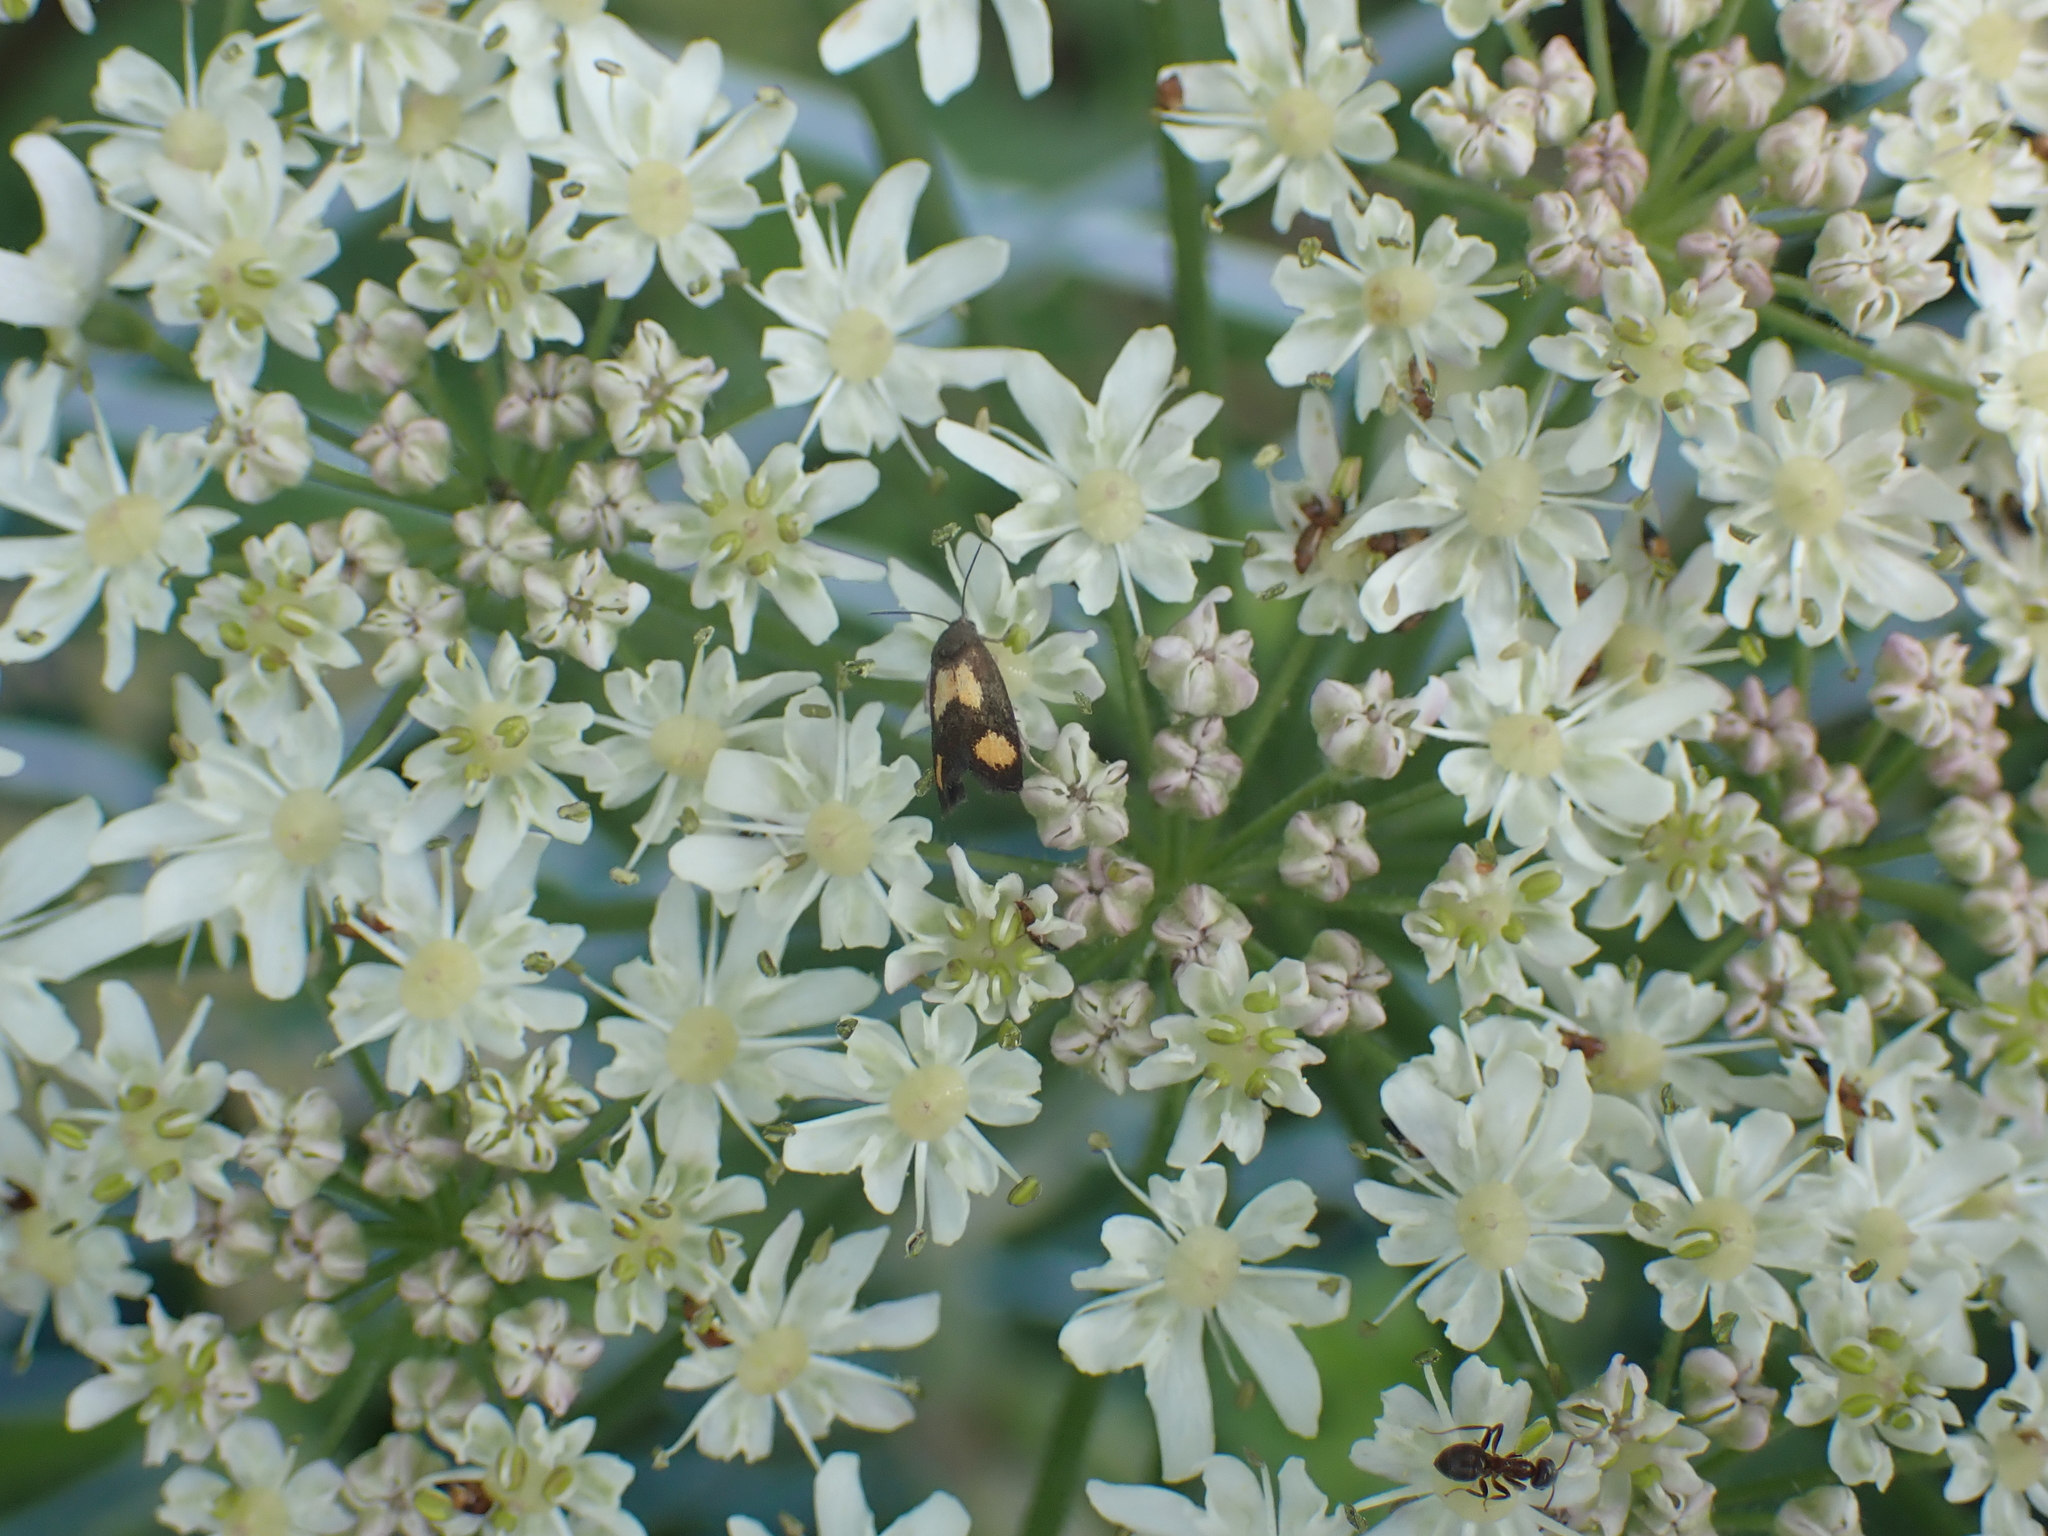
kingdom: Animalia
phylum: Arthropoda
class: Insecta
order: Lepidoptera
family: Tortricidae
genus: Pammene
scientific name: Pammene aurana
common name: Orange-spot piercer
